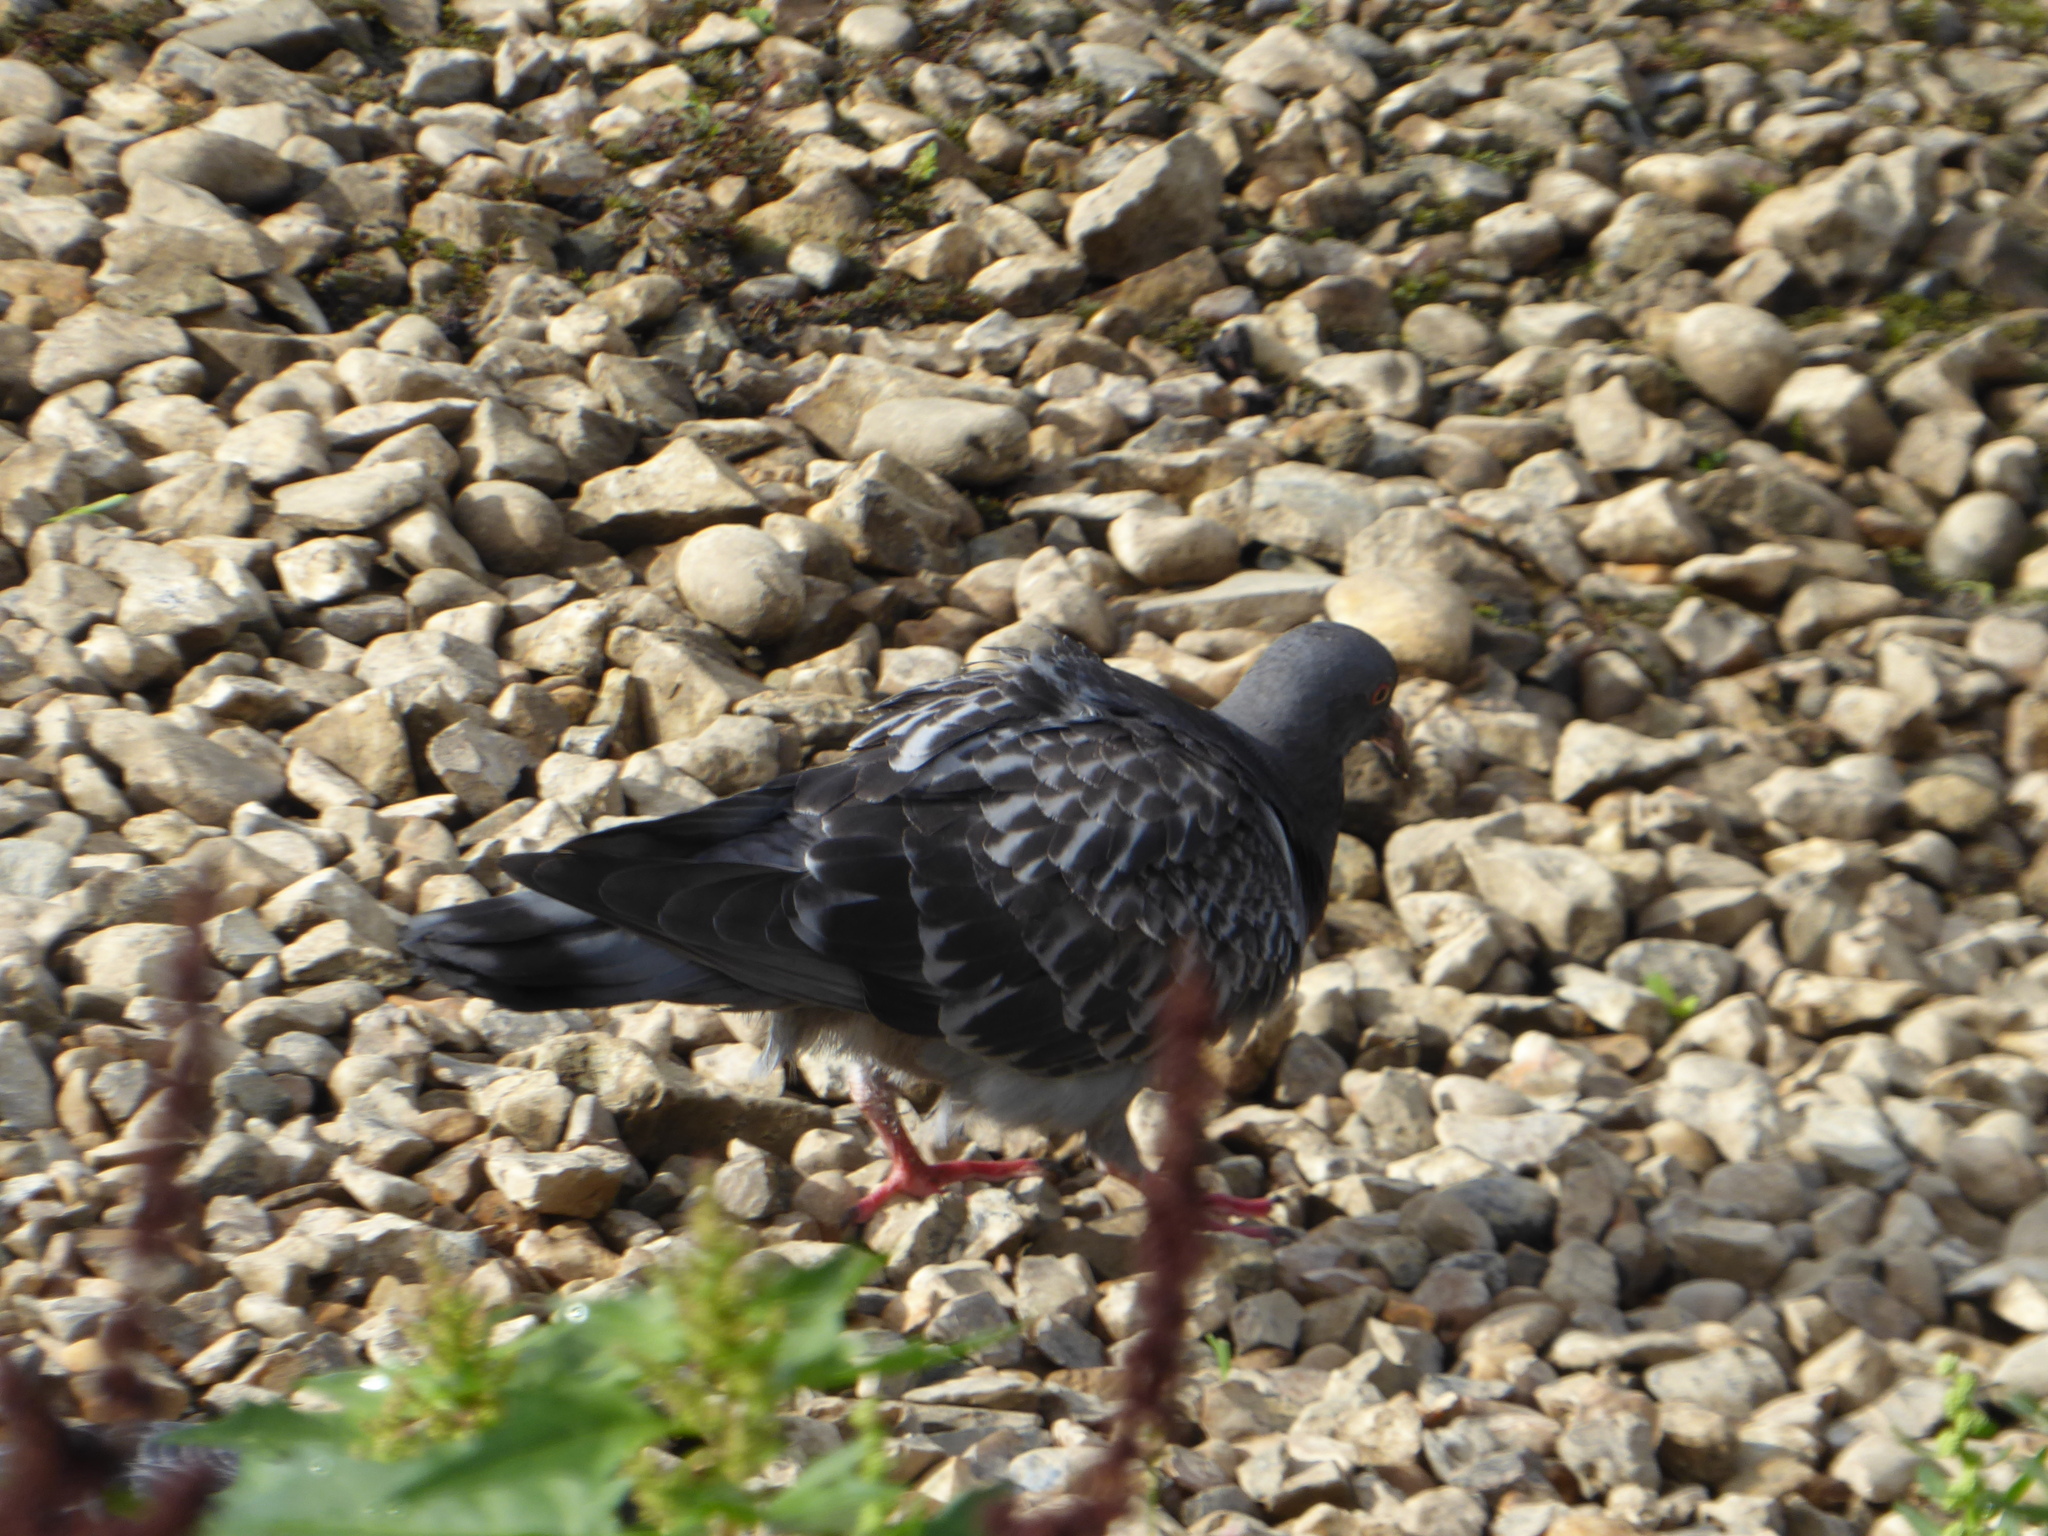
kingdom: Animalia
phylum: Chordata
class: Aves
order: Columbiformes
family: Columbidae
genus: Columba
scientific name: Columba livia
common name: Rock pigeon
